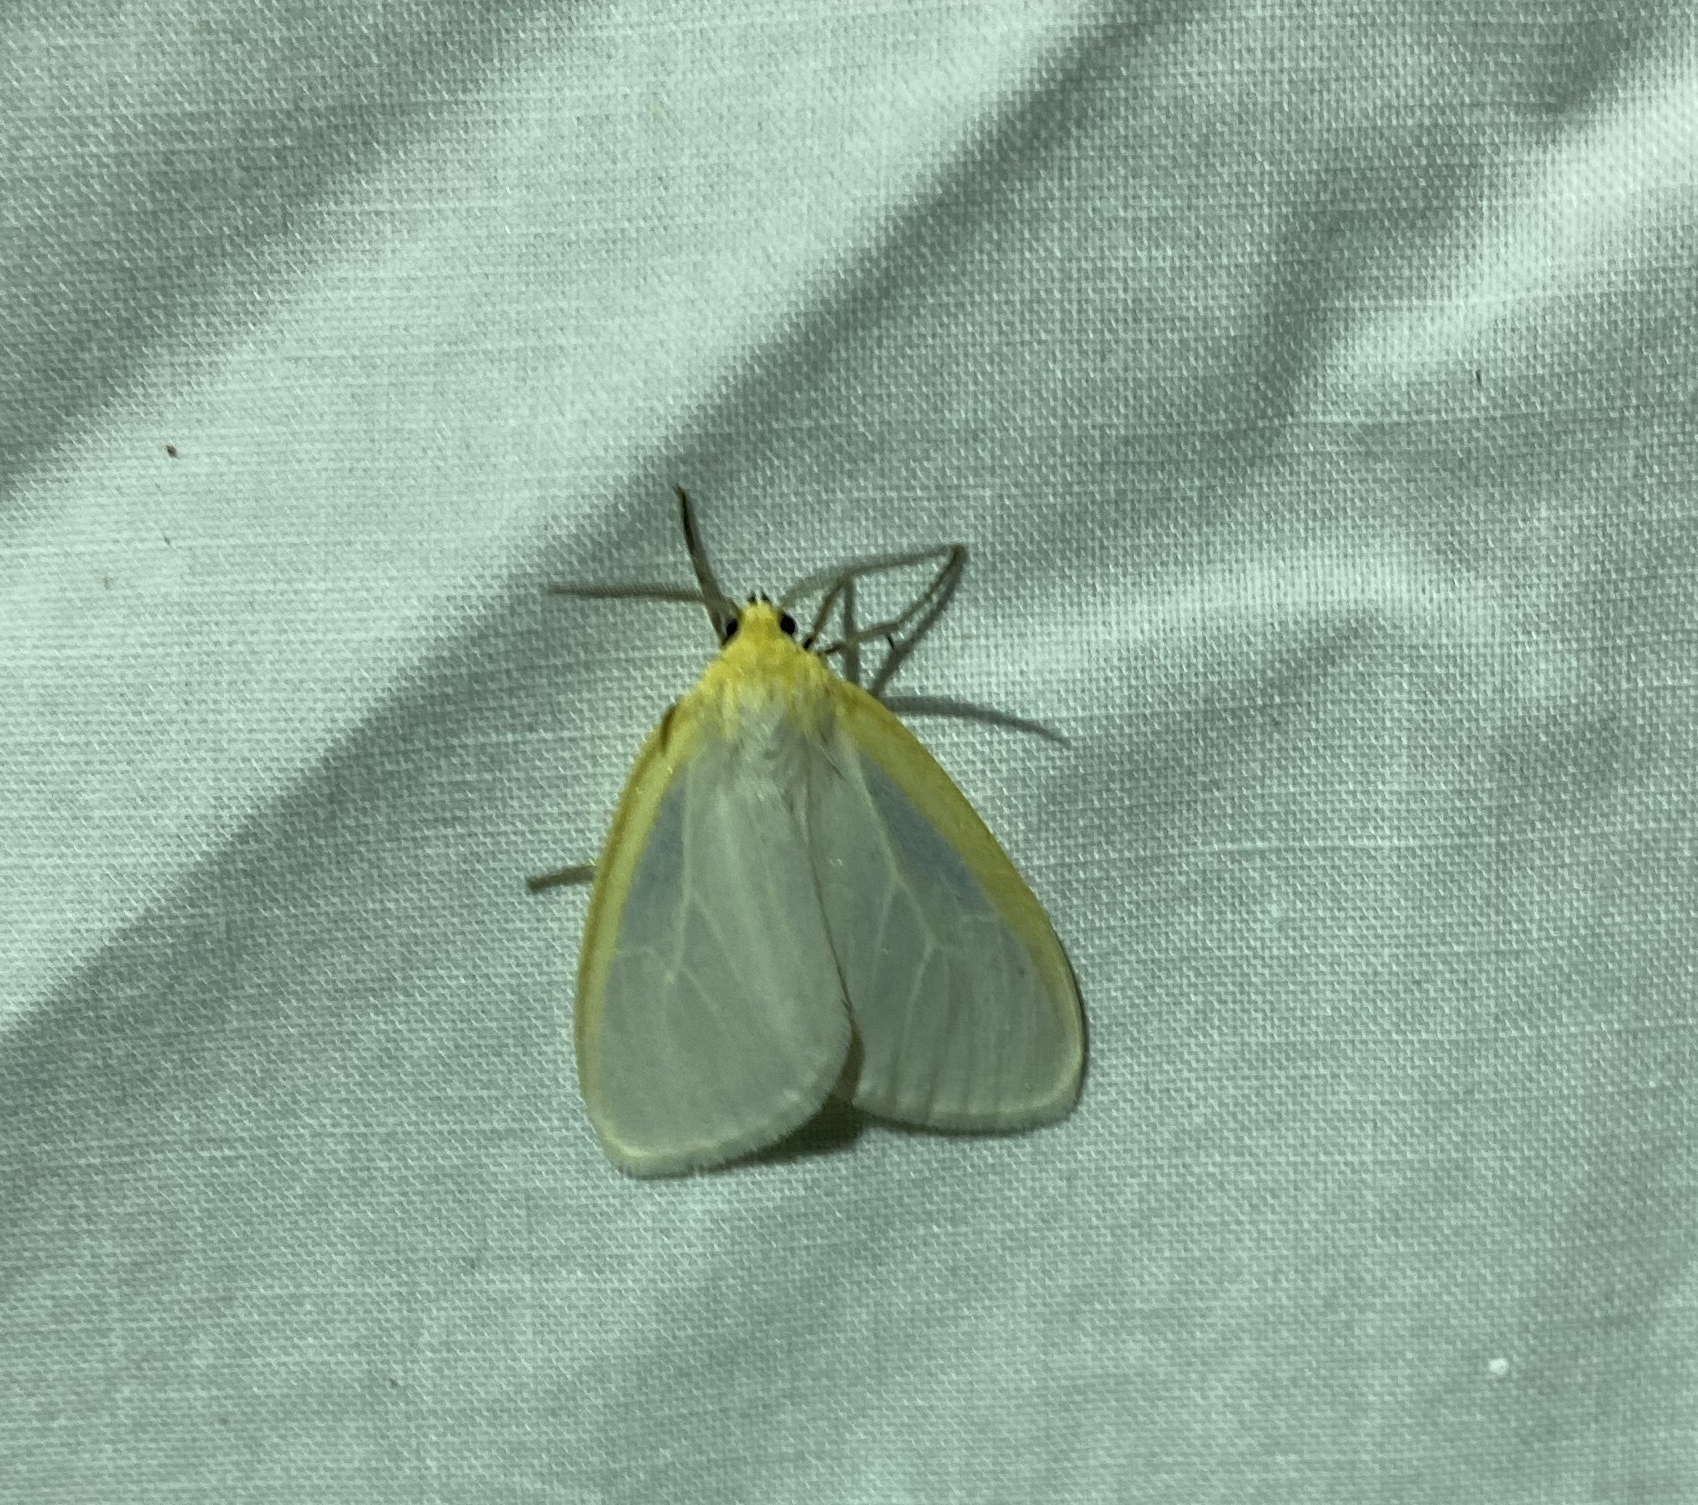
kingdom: Animalia
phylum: Arthropoda
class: Insecta
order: Lepidoptera
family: Erebidae
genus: Cycnia
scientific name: Cycnia tenera
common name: Delicate cycnia moth
